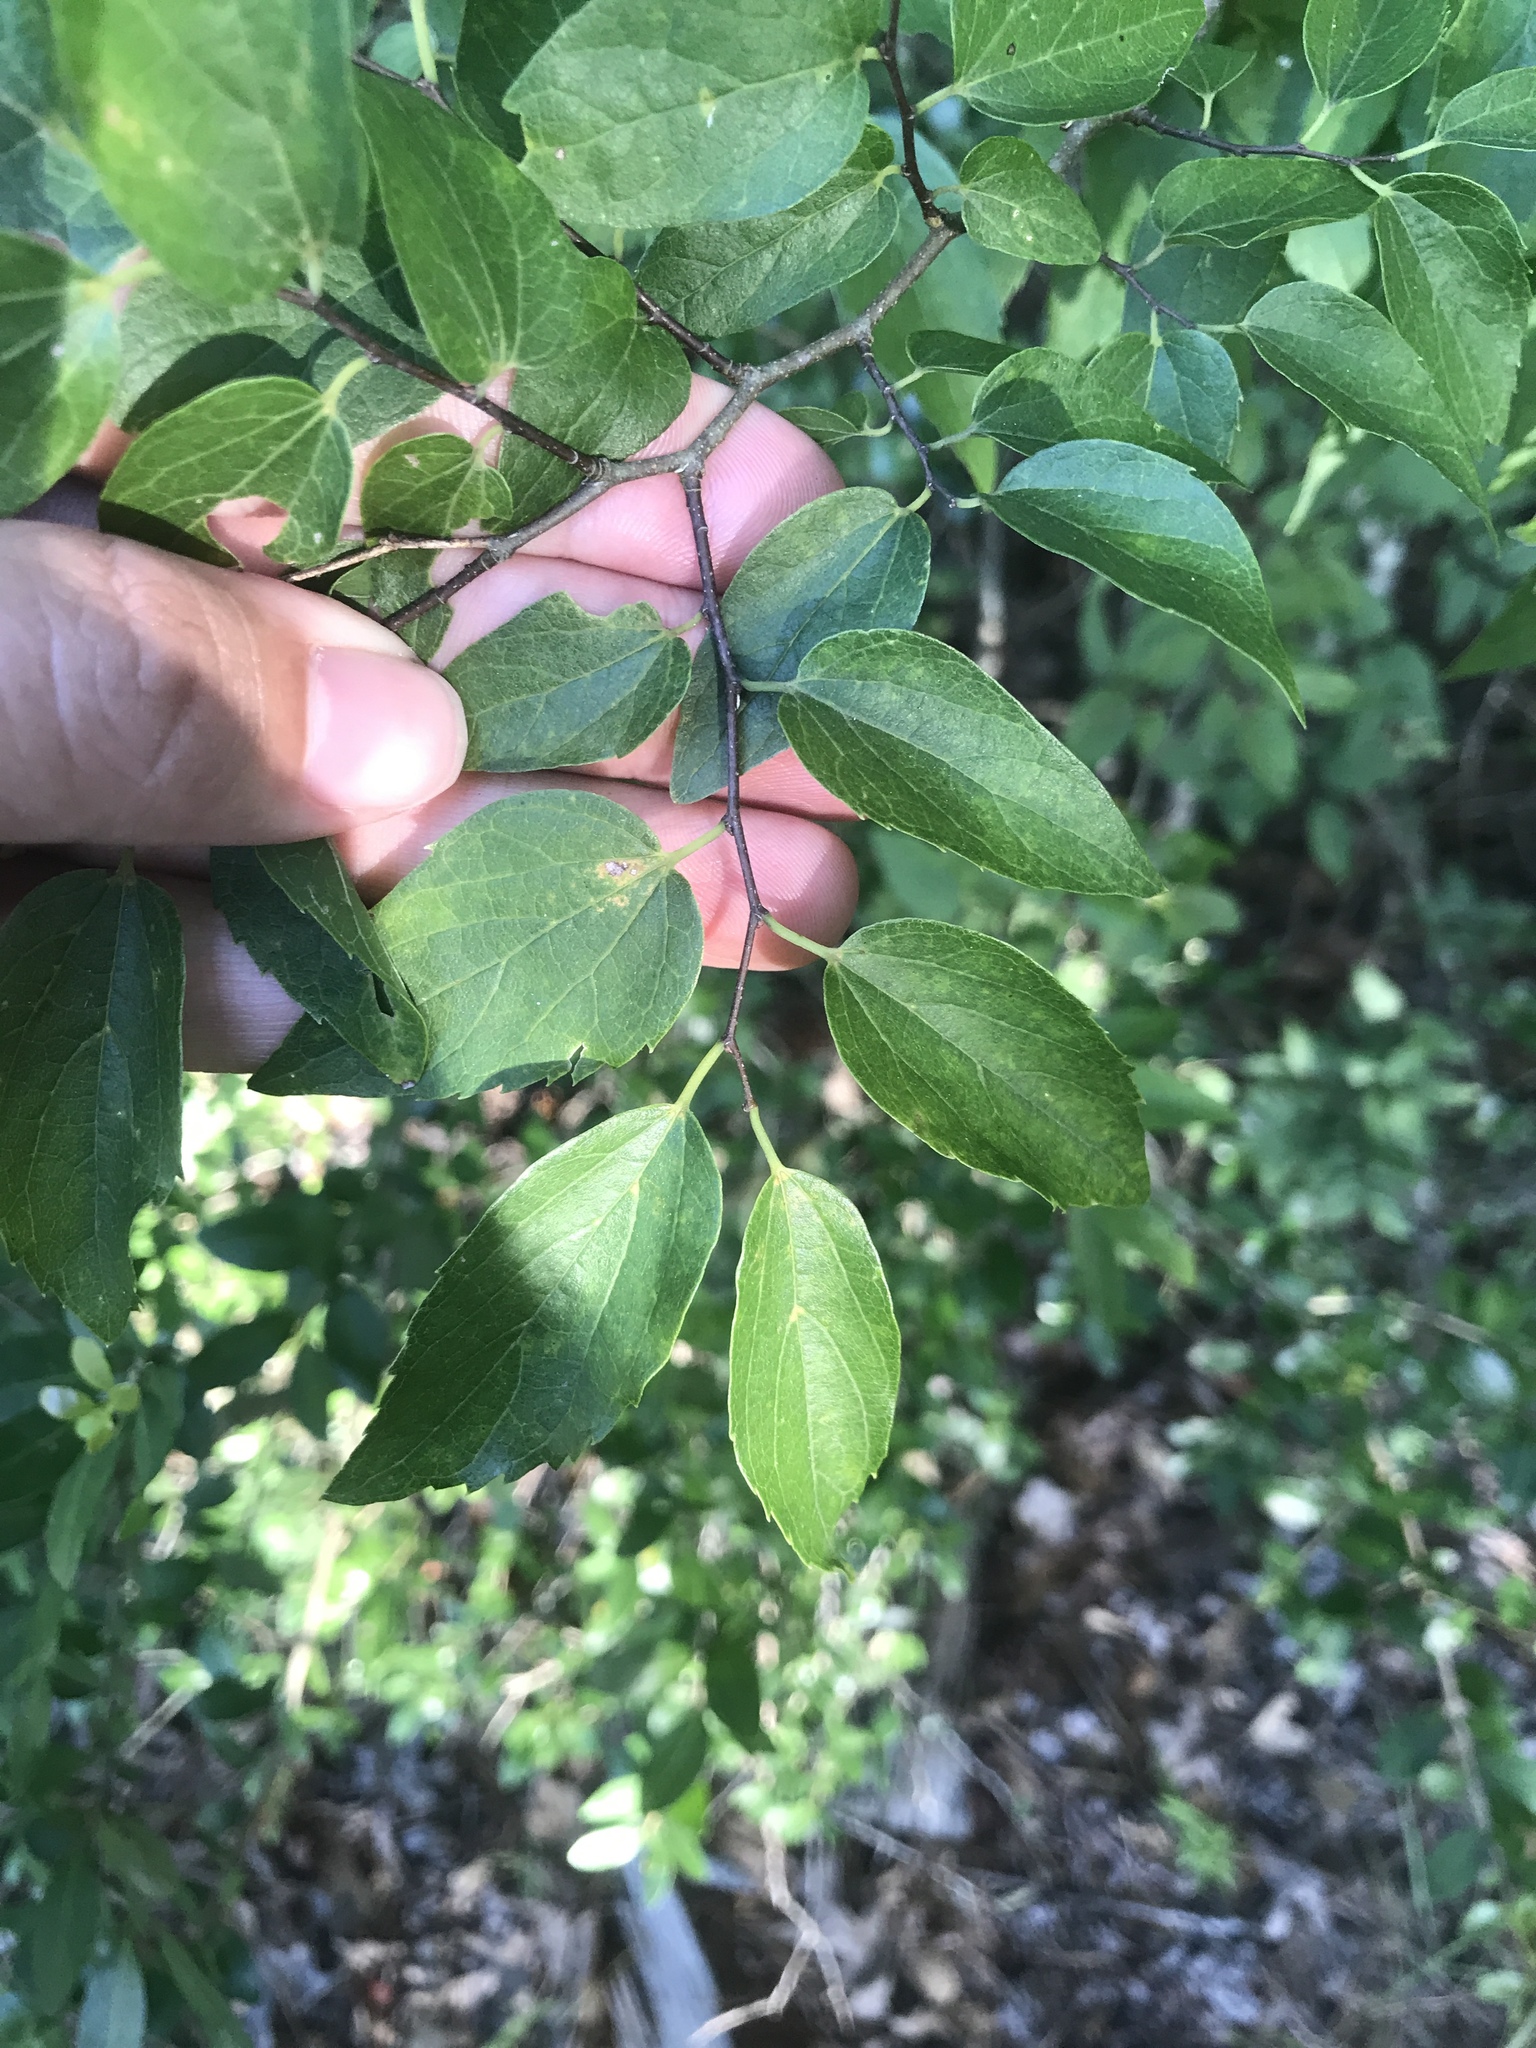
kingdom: Plantae
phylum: Tracheophyta
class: Magnoliopsida
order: Rosales
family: Cannabaceae
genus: Celtis
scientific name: Celtis laevigata
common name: Sugarberry
